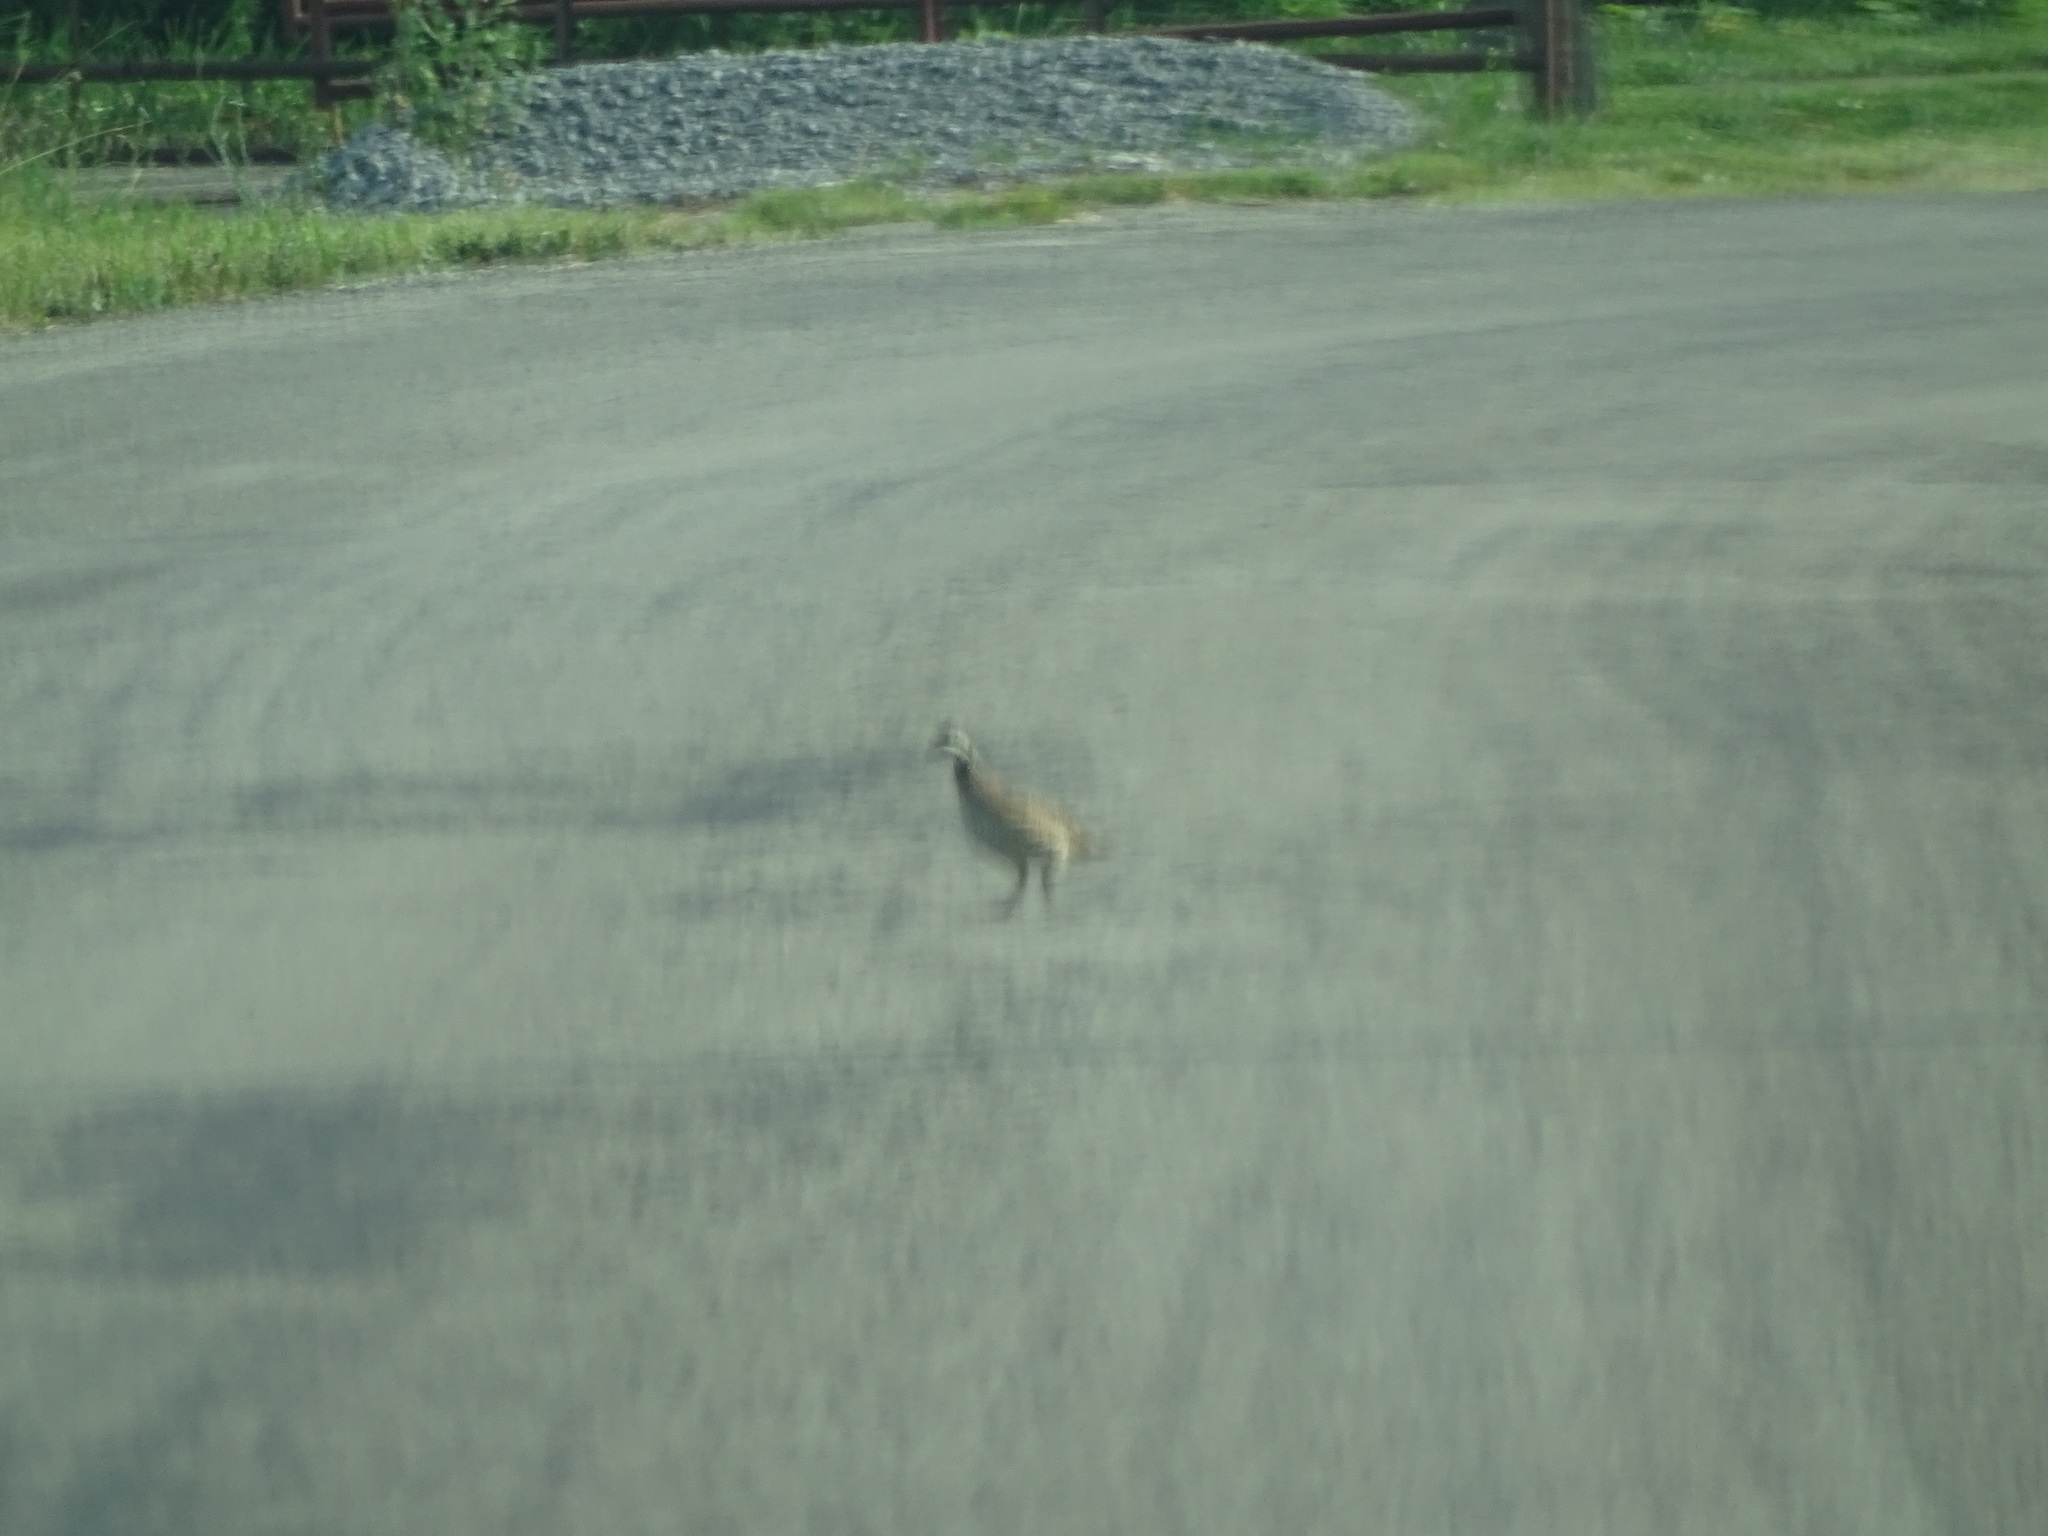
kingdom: Animalia
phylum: Chordata
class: Aves
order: Galliformes
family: Odontophoridae
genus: Colinus
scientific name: Colinus virginianus
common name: Northern bobwhite
